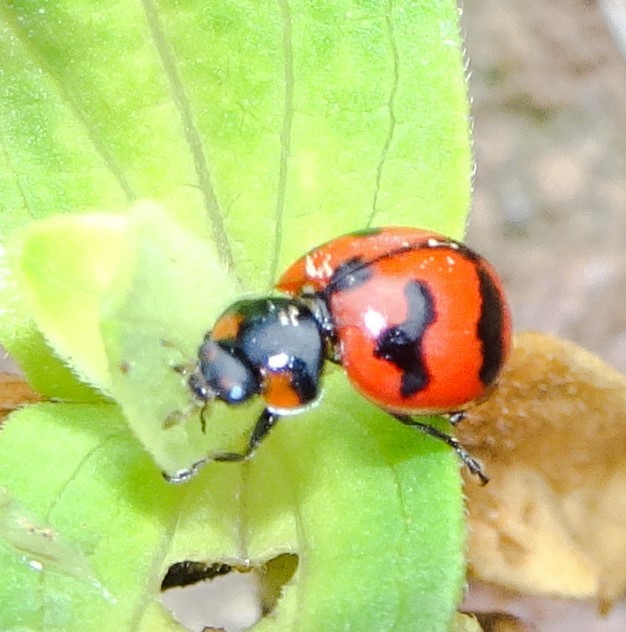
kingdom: Animalia
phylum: Arthropoda
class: Insecta
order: Coleoptera
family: Coccinellidae
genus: Coccinella
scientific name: Coccinella transversalis
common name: Transverse lady beetle
